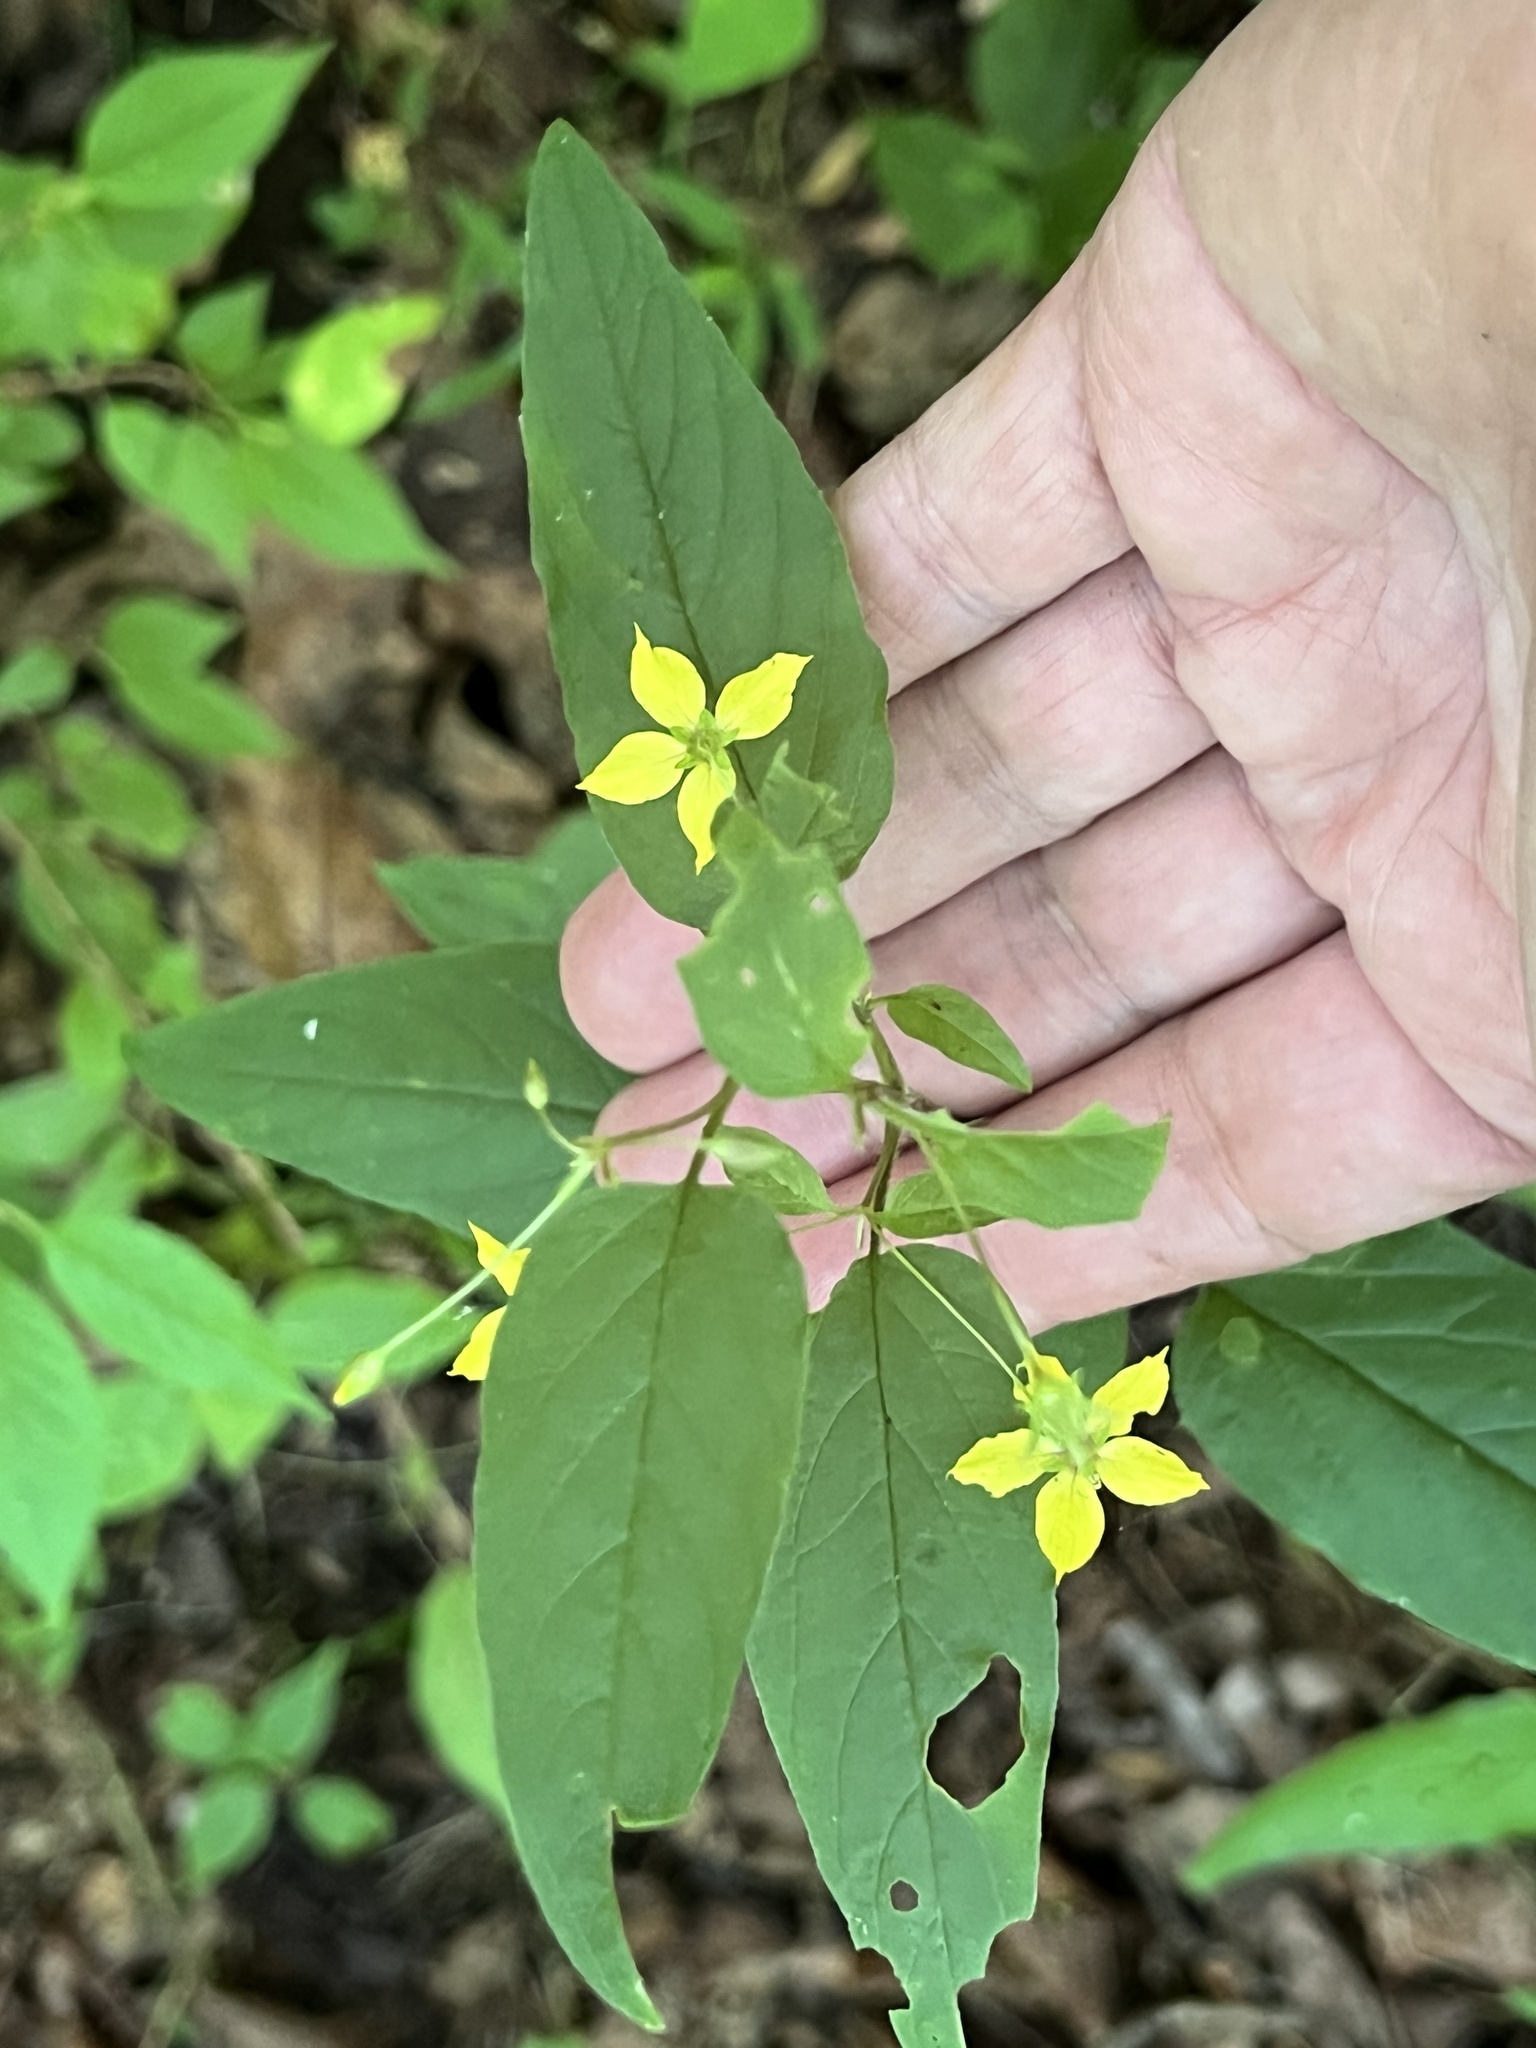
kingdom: Plantae
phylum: Tracheophyta
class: Magnoliopsida
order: Ericales
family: Primulaceae
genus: Lysimachia
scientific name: Lysimachia ciliata
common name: Fringed loosestrife
